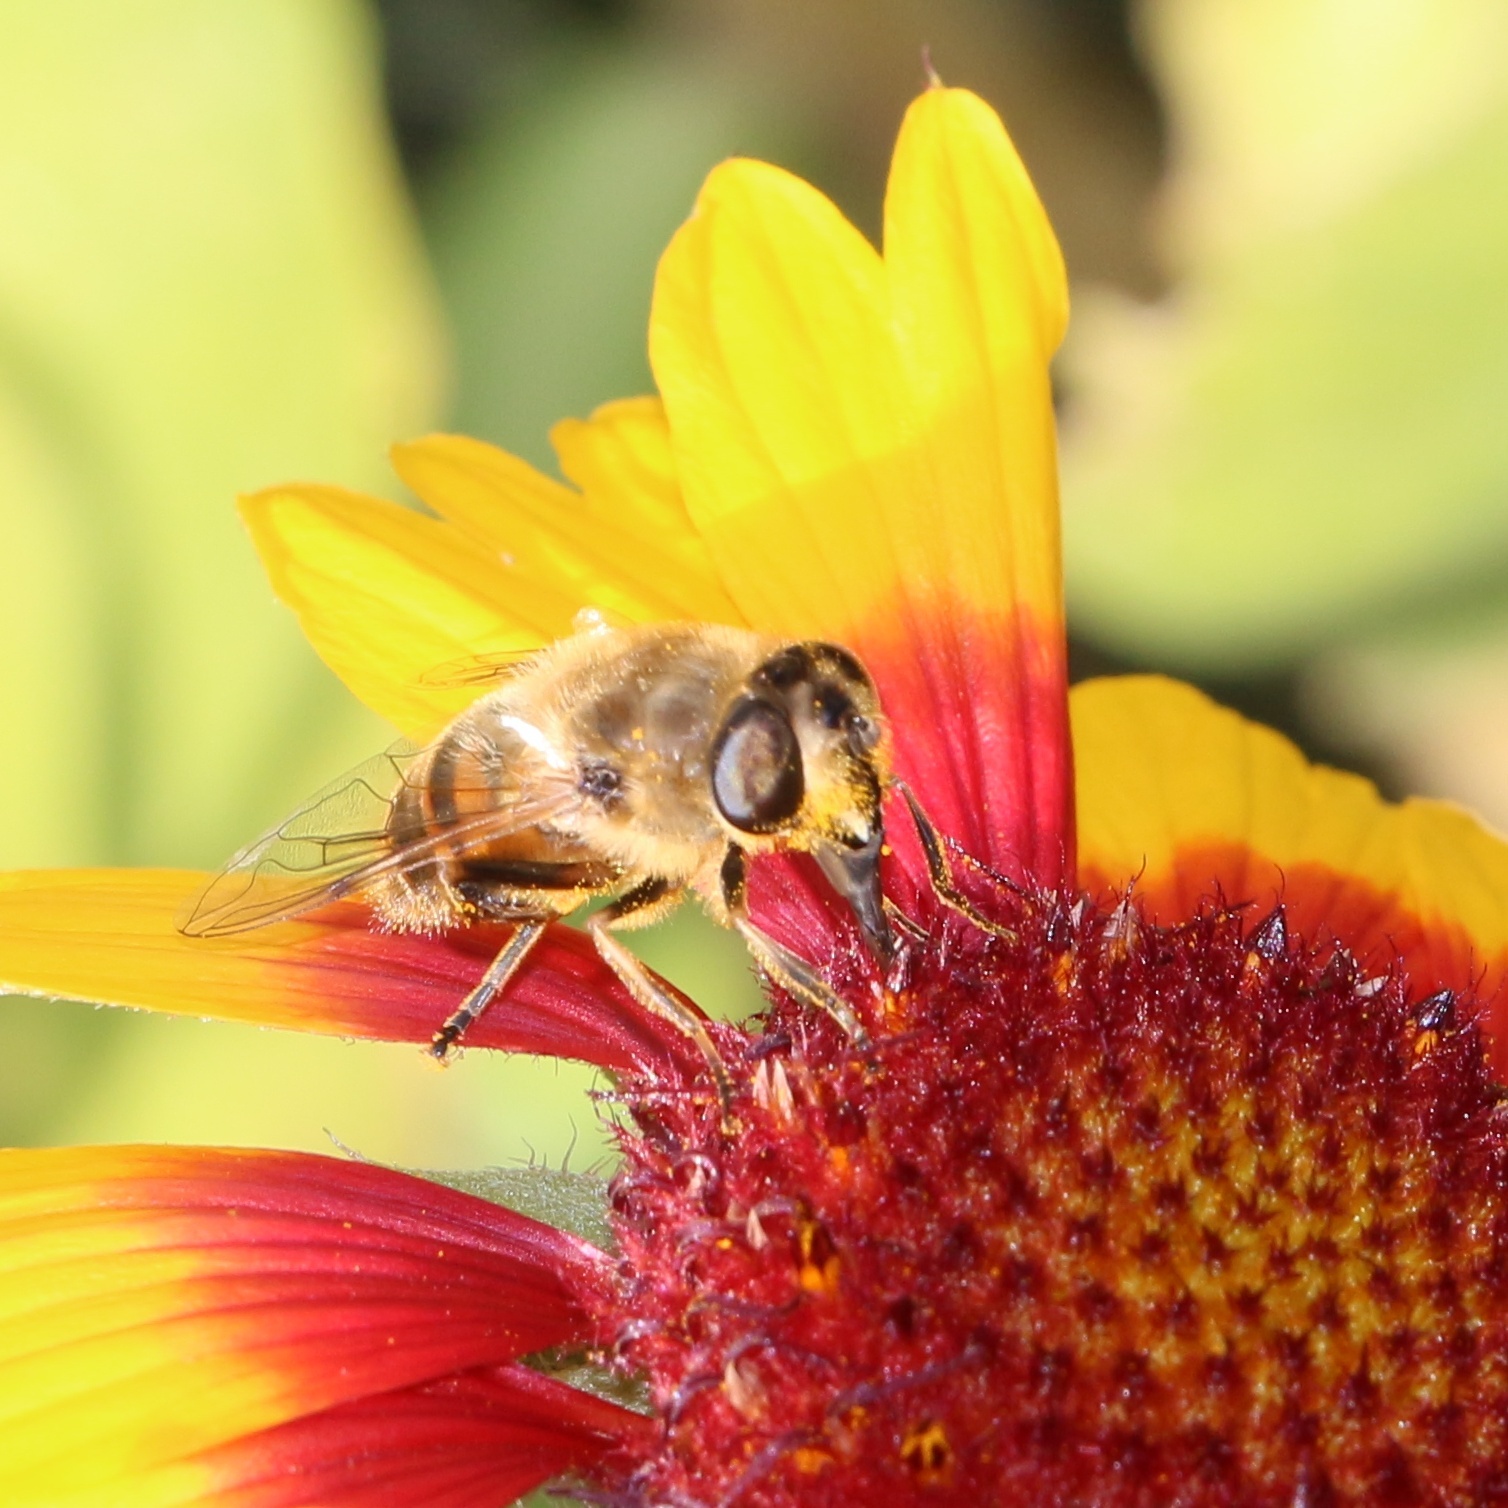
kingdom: Animalia
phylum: Arthropoda
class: Insecta
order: Diptera
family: Syrphidae
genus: Eristalis
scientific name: Eristalis tenax
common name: Drone fly
